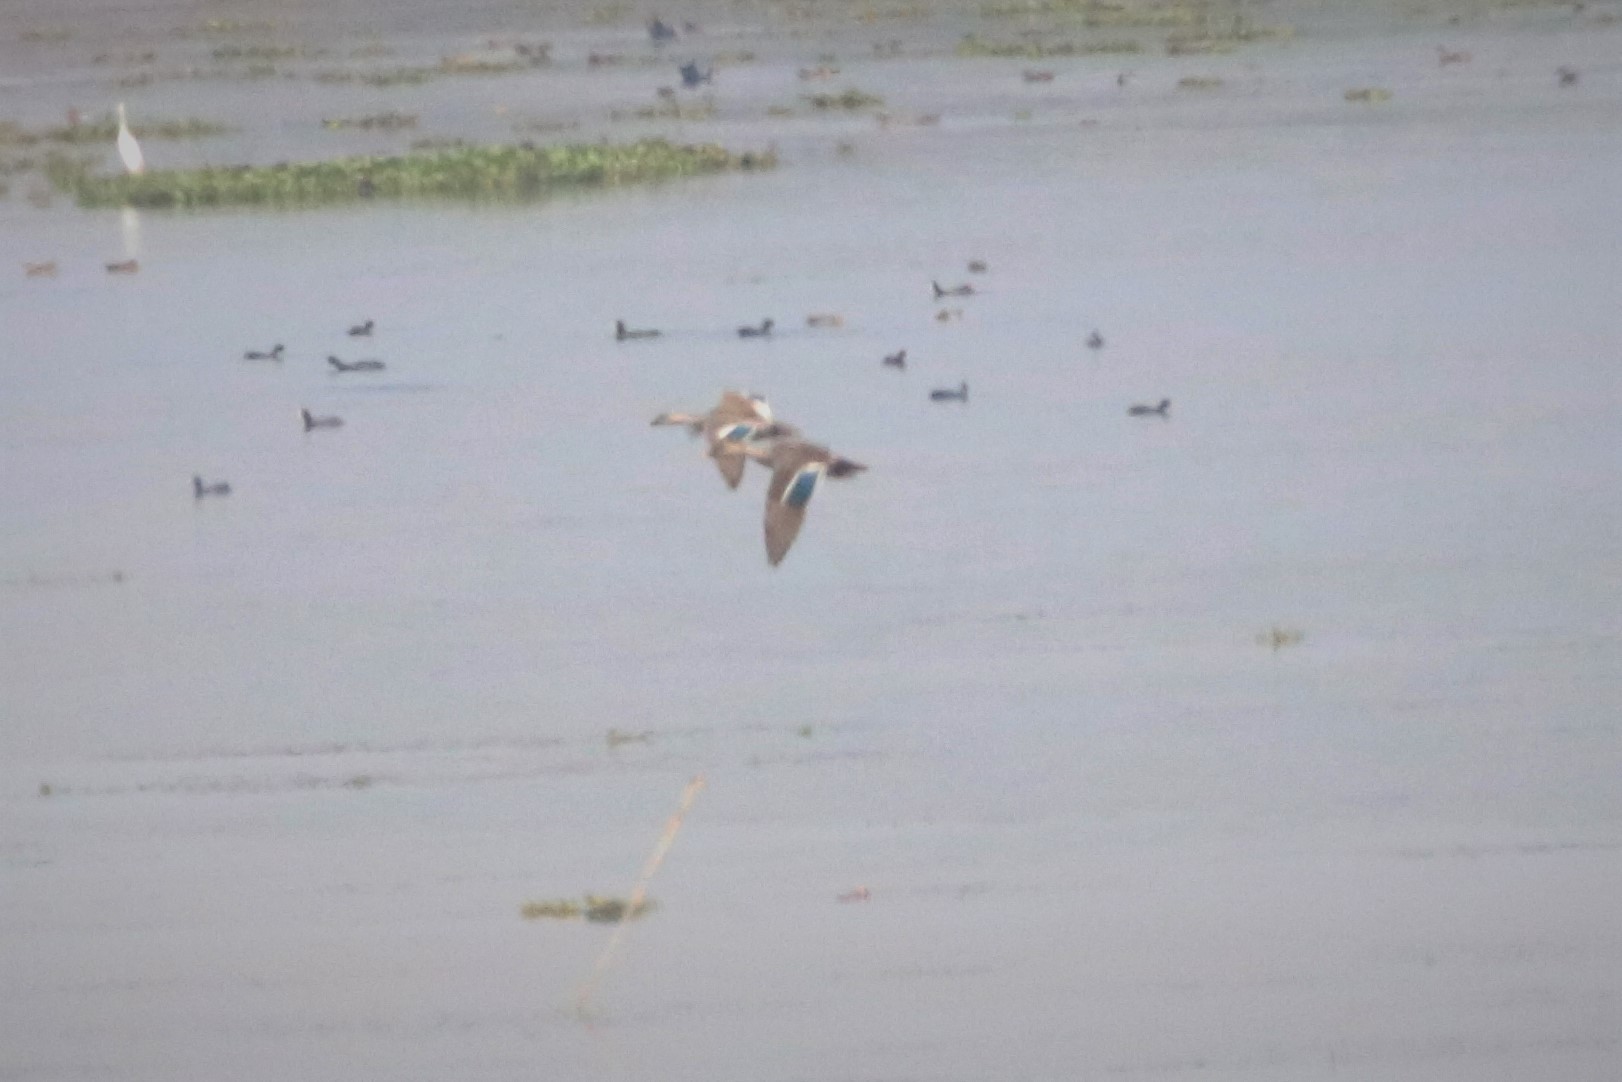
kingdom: Animalia
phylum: Chordata
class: Aves
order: Anseriformes
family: Anatidae
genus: Spatula
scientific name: Spatula querquedula
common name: Garganey
